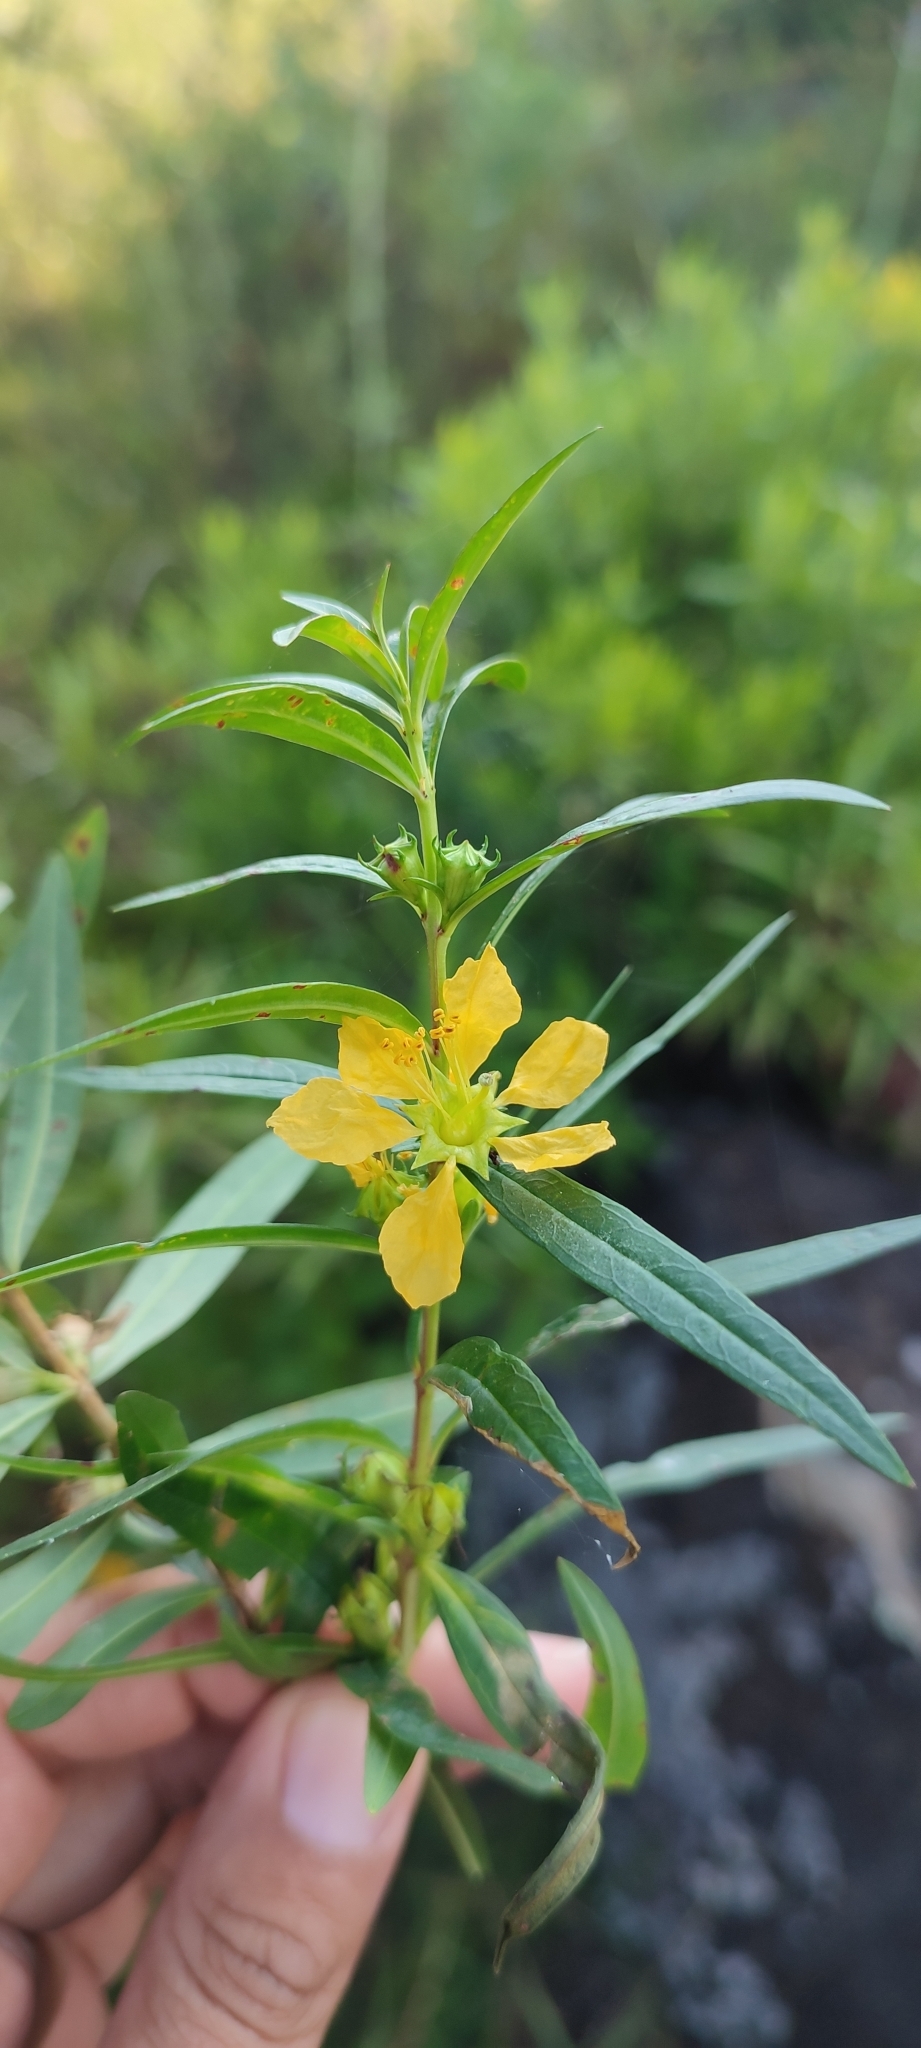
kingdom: Plantae
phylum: Tracheophyta
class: Magnoliopsida
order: Myrtales
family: Lythraceae
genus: Heimia
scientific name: Heimia salicifolia
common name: Willow-leaf heimia
